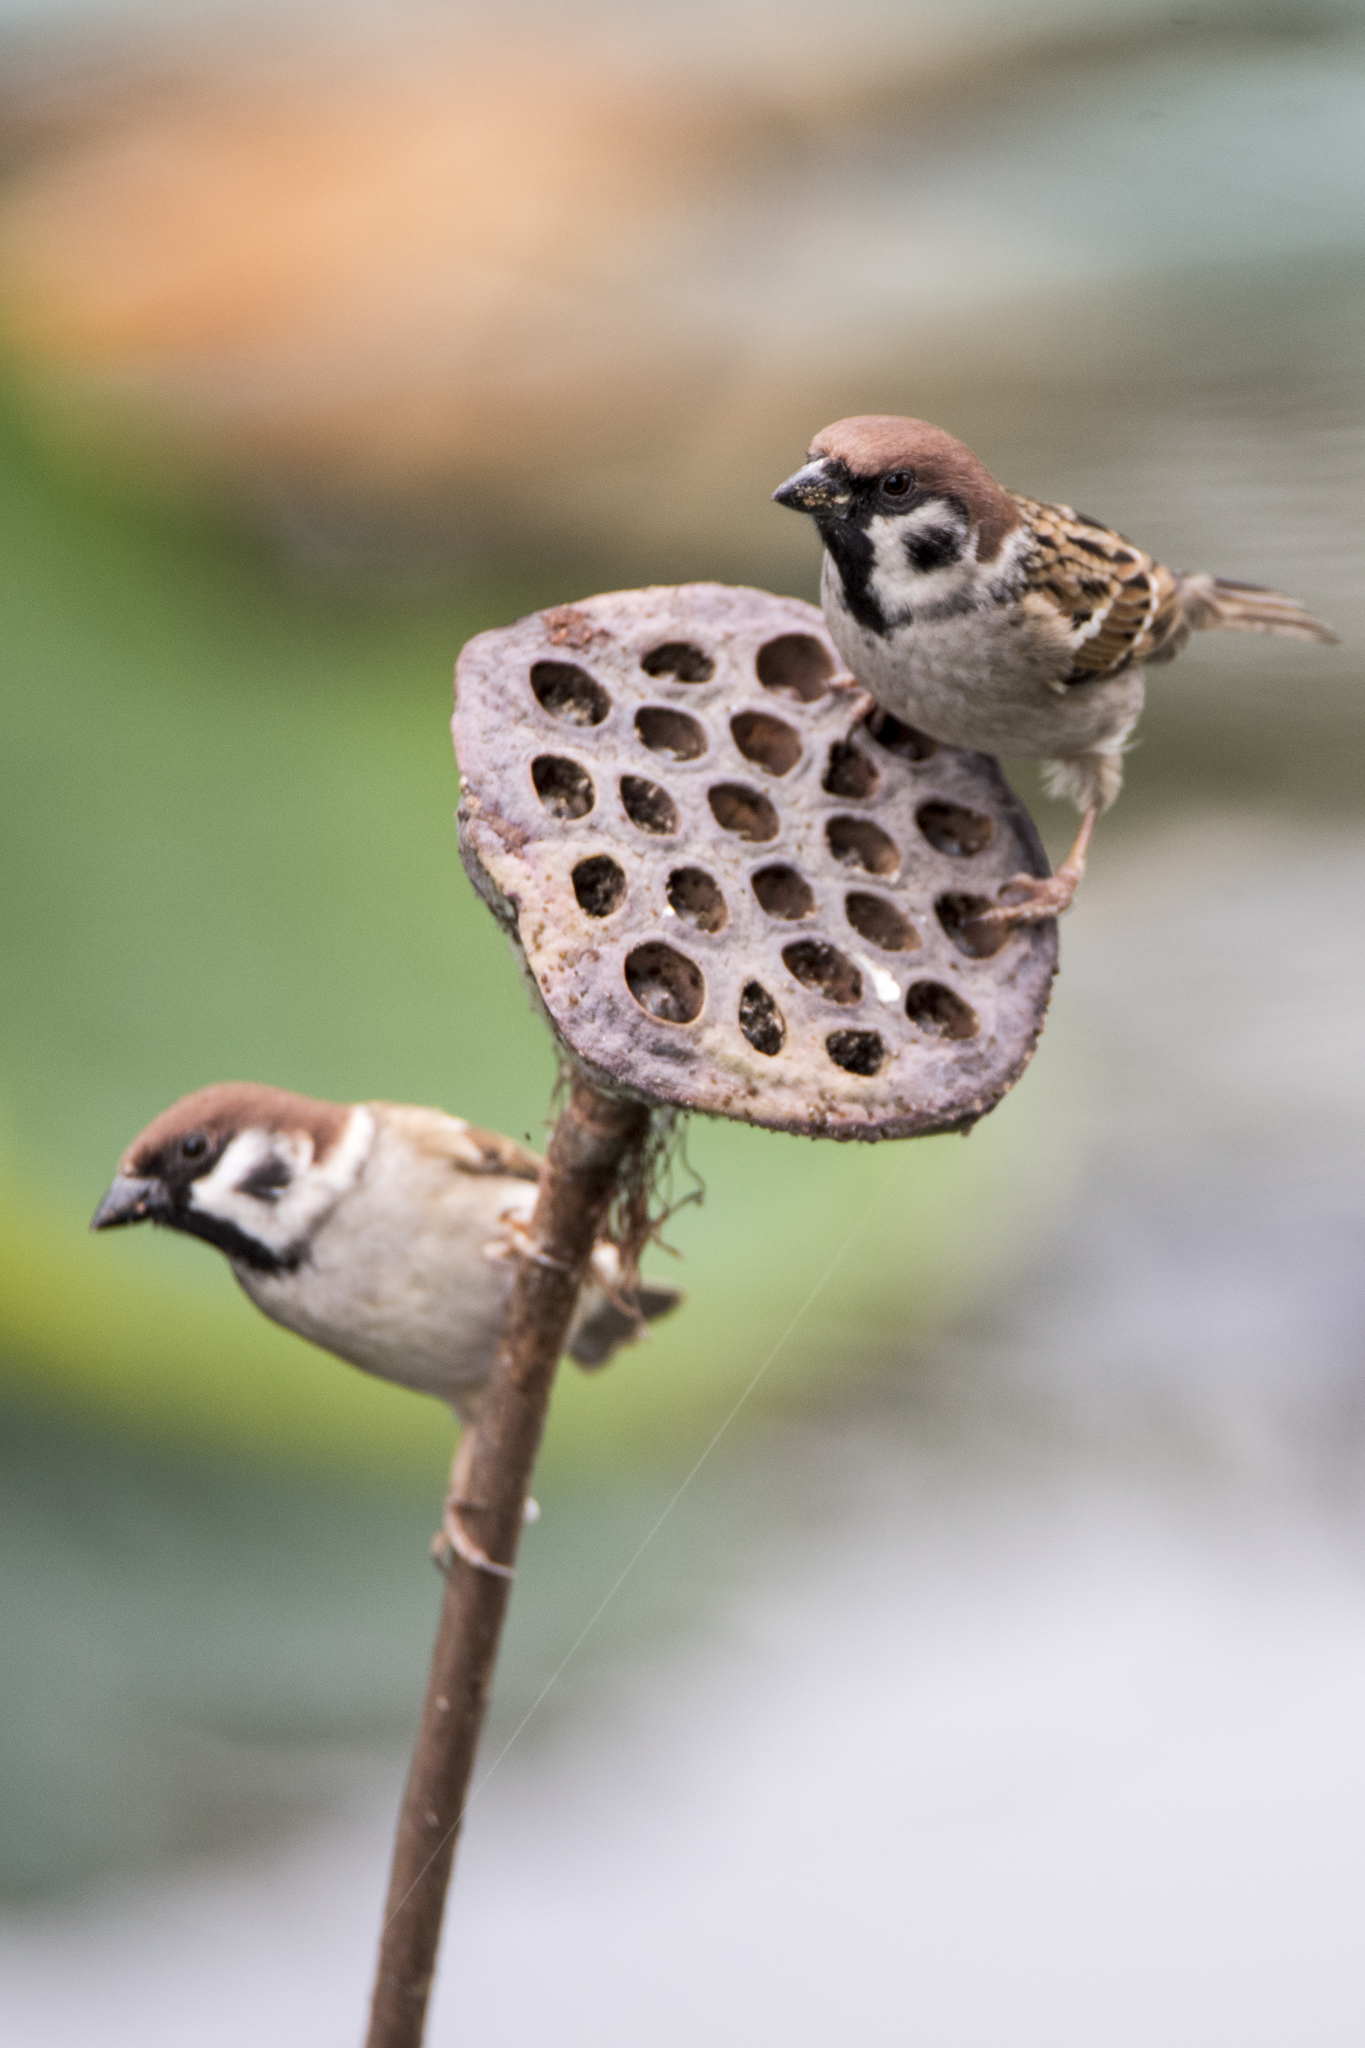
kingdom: Animalia
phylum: Chordata
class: Aves
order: Passeriformes
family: Passeridae
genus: Passer
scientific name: Passer montanus
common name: Eurasian tree sparrow
